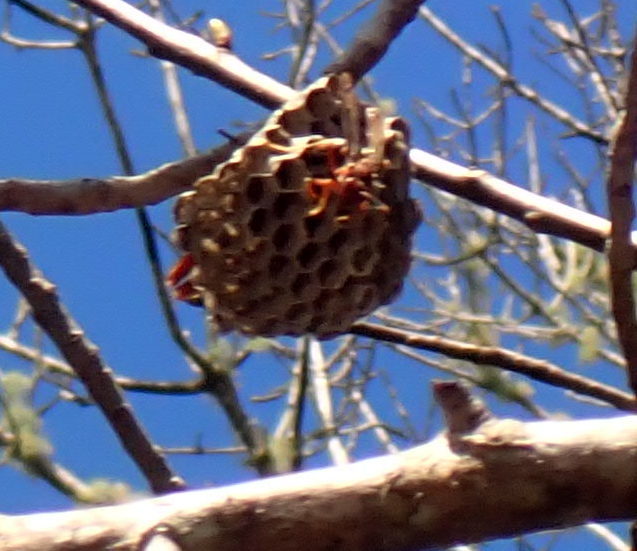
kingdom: Animalia
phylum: Arthropoda
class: Insecta
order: Hymenoptera
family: Eumenidae
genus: Polistes
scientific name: Polistes annularis
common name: Ringed paper wasp
